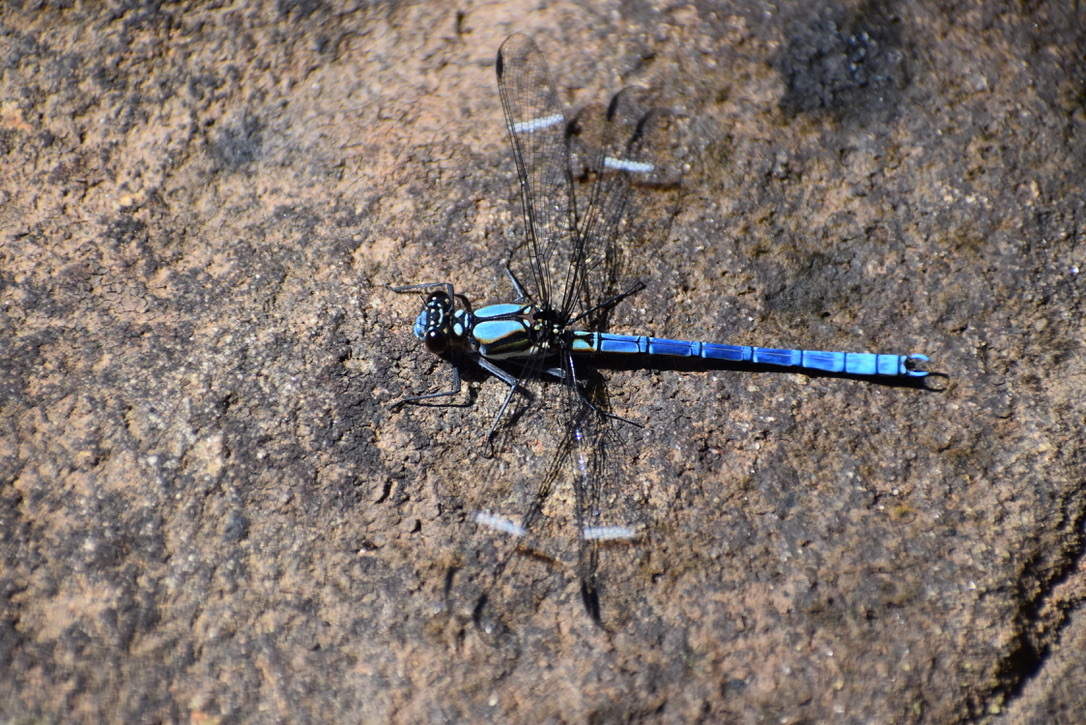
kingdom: Animalia
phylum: Arthropoda
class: Insecta
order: Odonata
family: Lestoideidae
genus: Diphlebia
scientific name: Diphlebia lestoides
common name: Whitewater rockmaster
